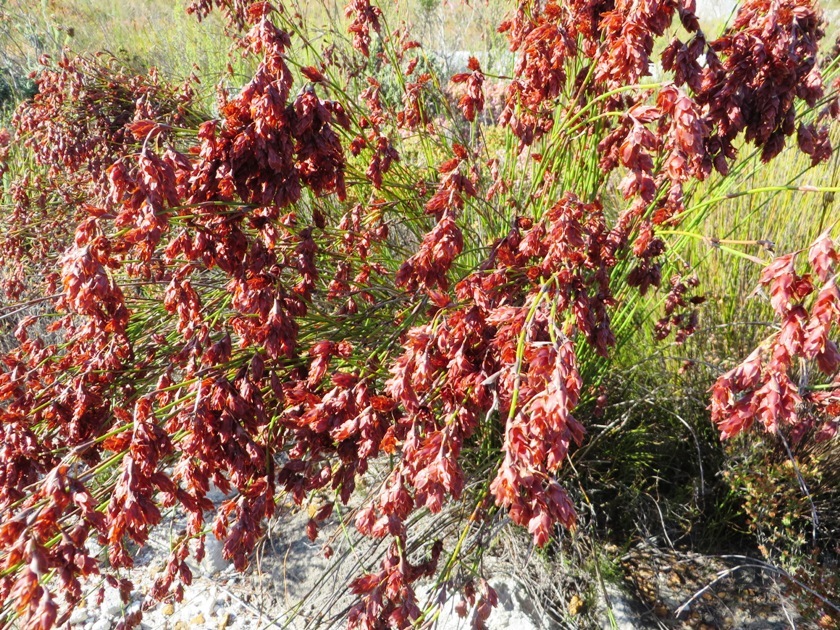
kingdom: Plantae
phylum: Tracheophyta
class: Liliopsida
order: Poales
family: Restionaceae
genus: Restio
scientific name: Restio bifarius
